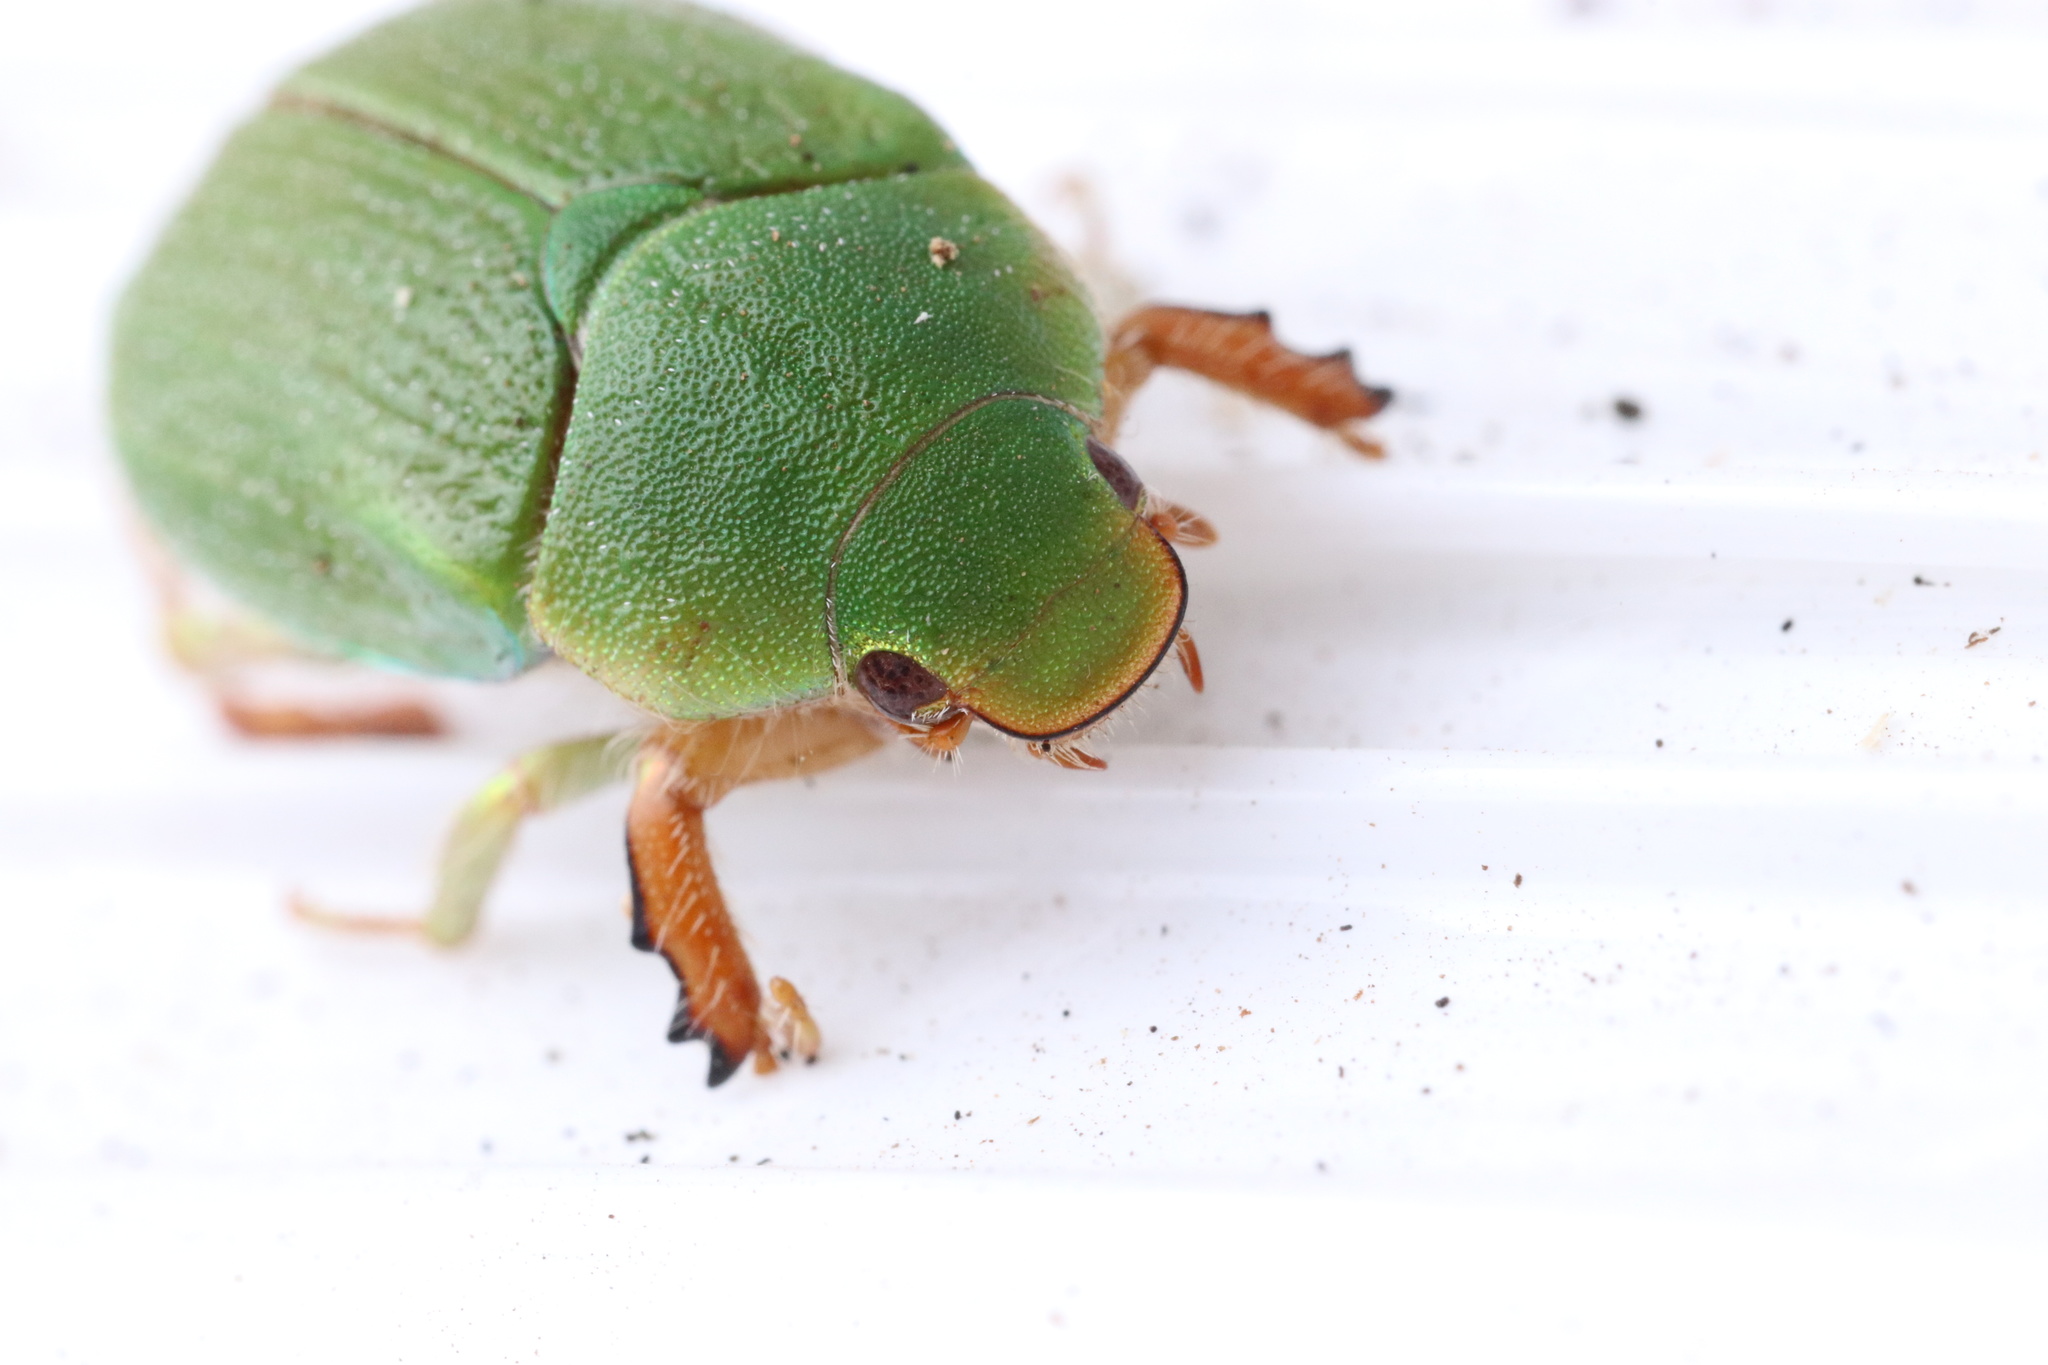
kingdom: Animalia
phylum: Arthropoda
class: Insecta
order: Coleoptera
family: Scarabaeidae
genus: Hylamorpha
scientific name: Hylamorpha elegans
